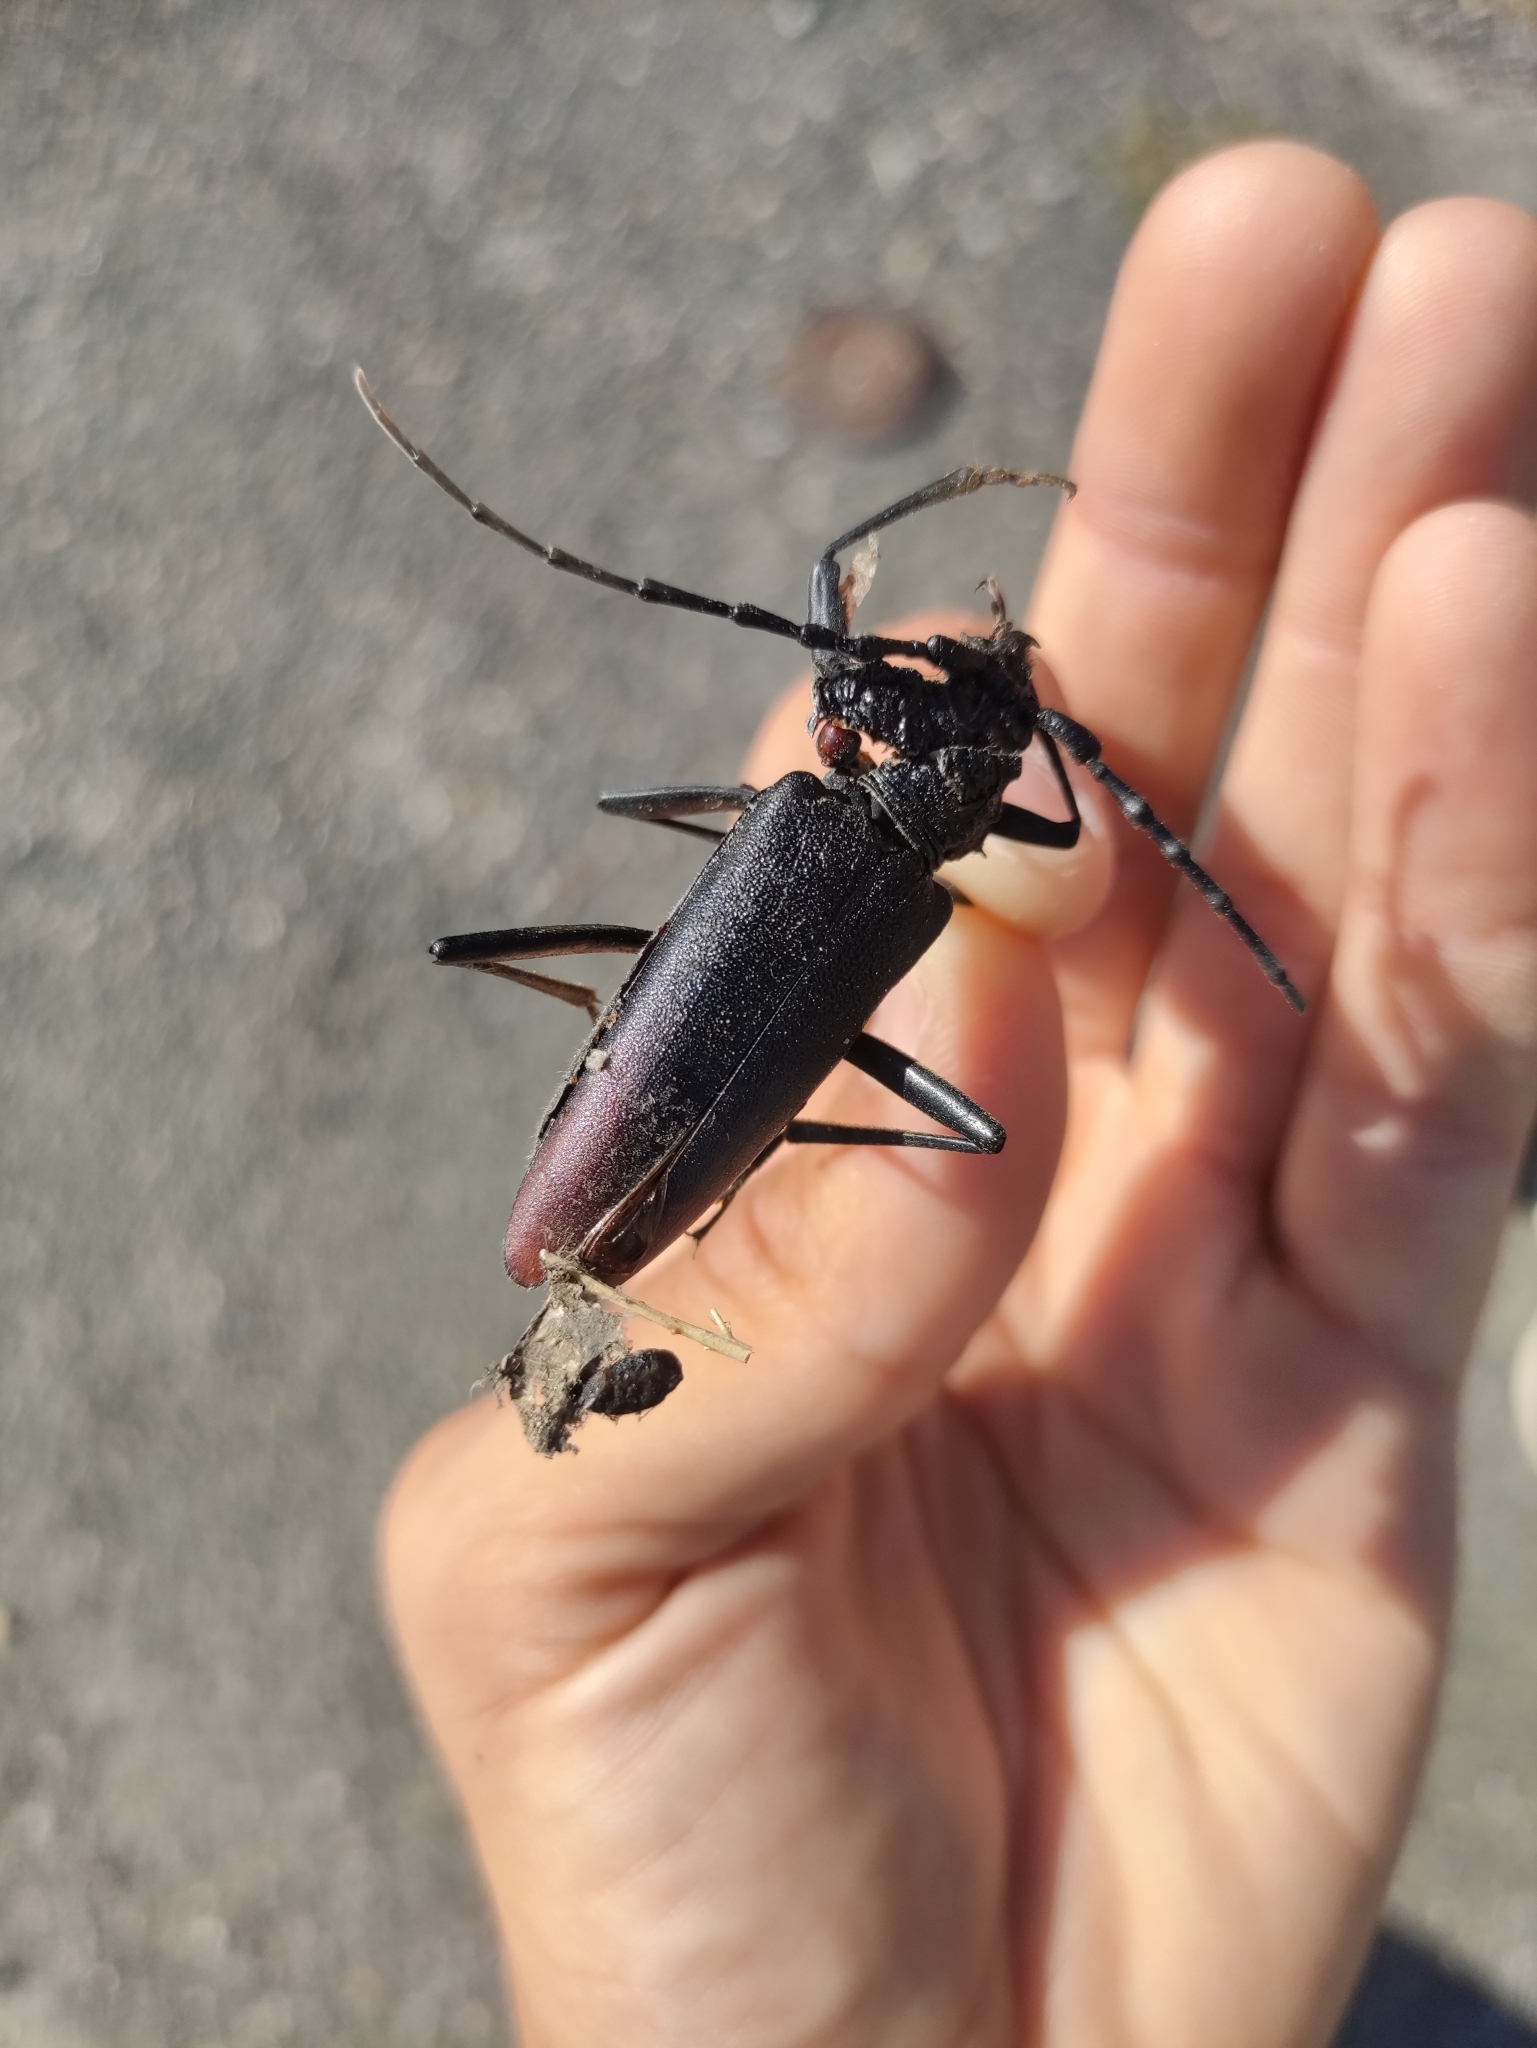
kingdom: Animalia
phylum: Arthropoda
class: Insecta
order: Coleoptera
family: Cerambycidae
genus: Cerambyx
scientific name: Cerambyx cerdo
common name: Cerambyx longicorn
